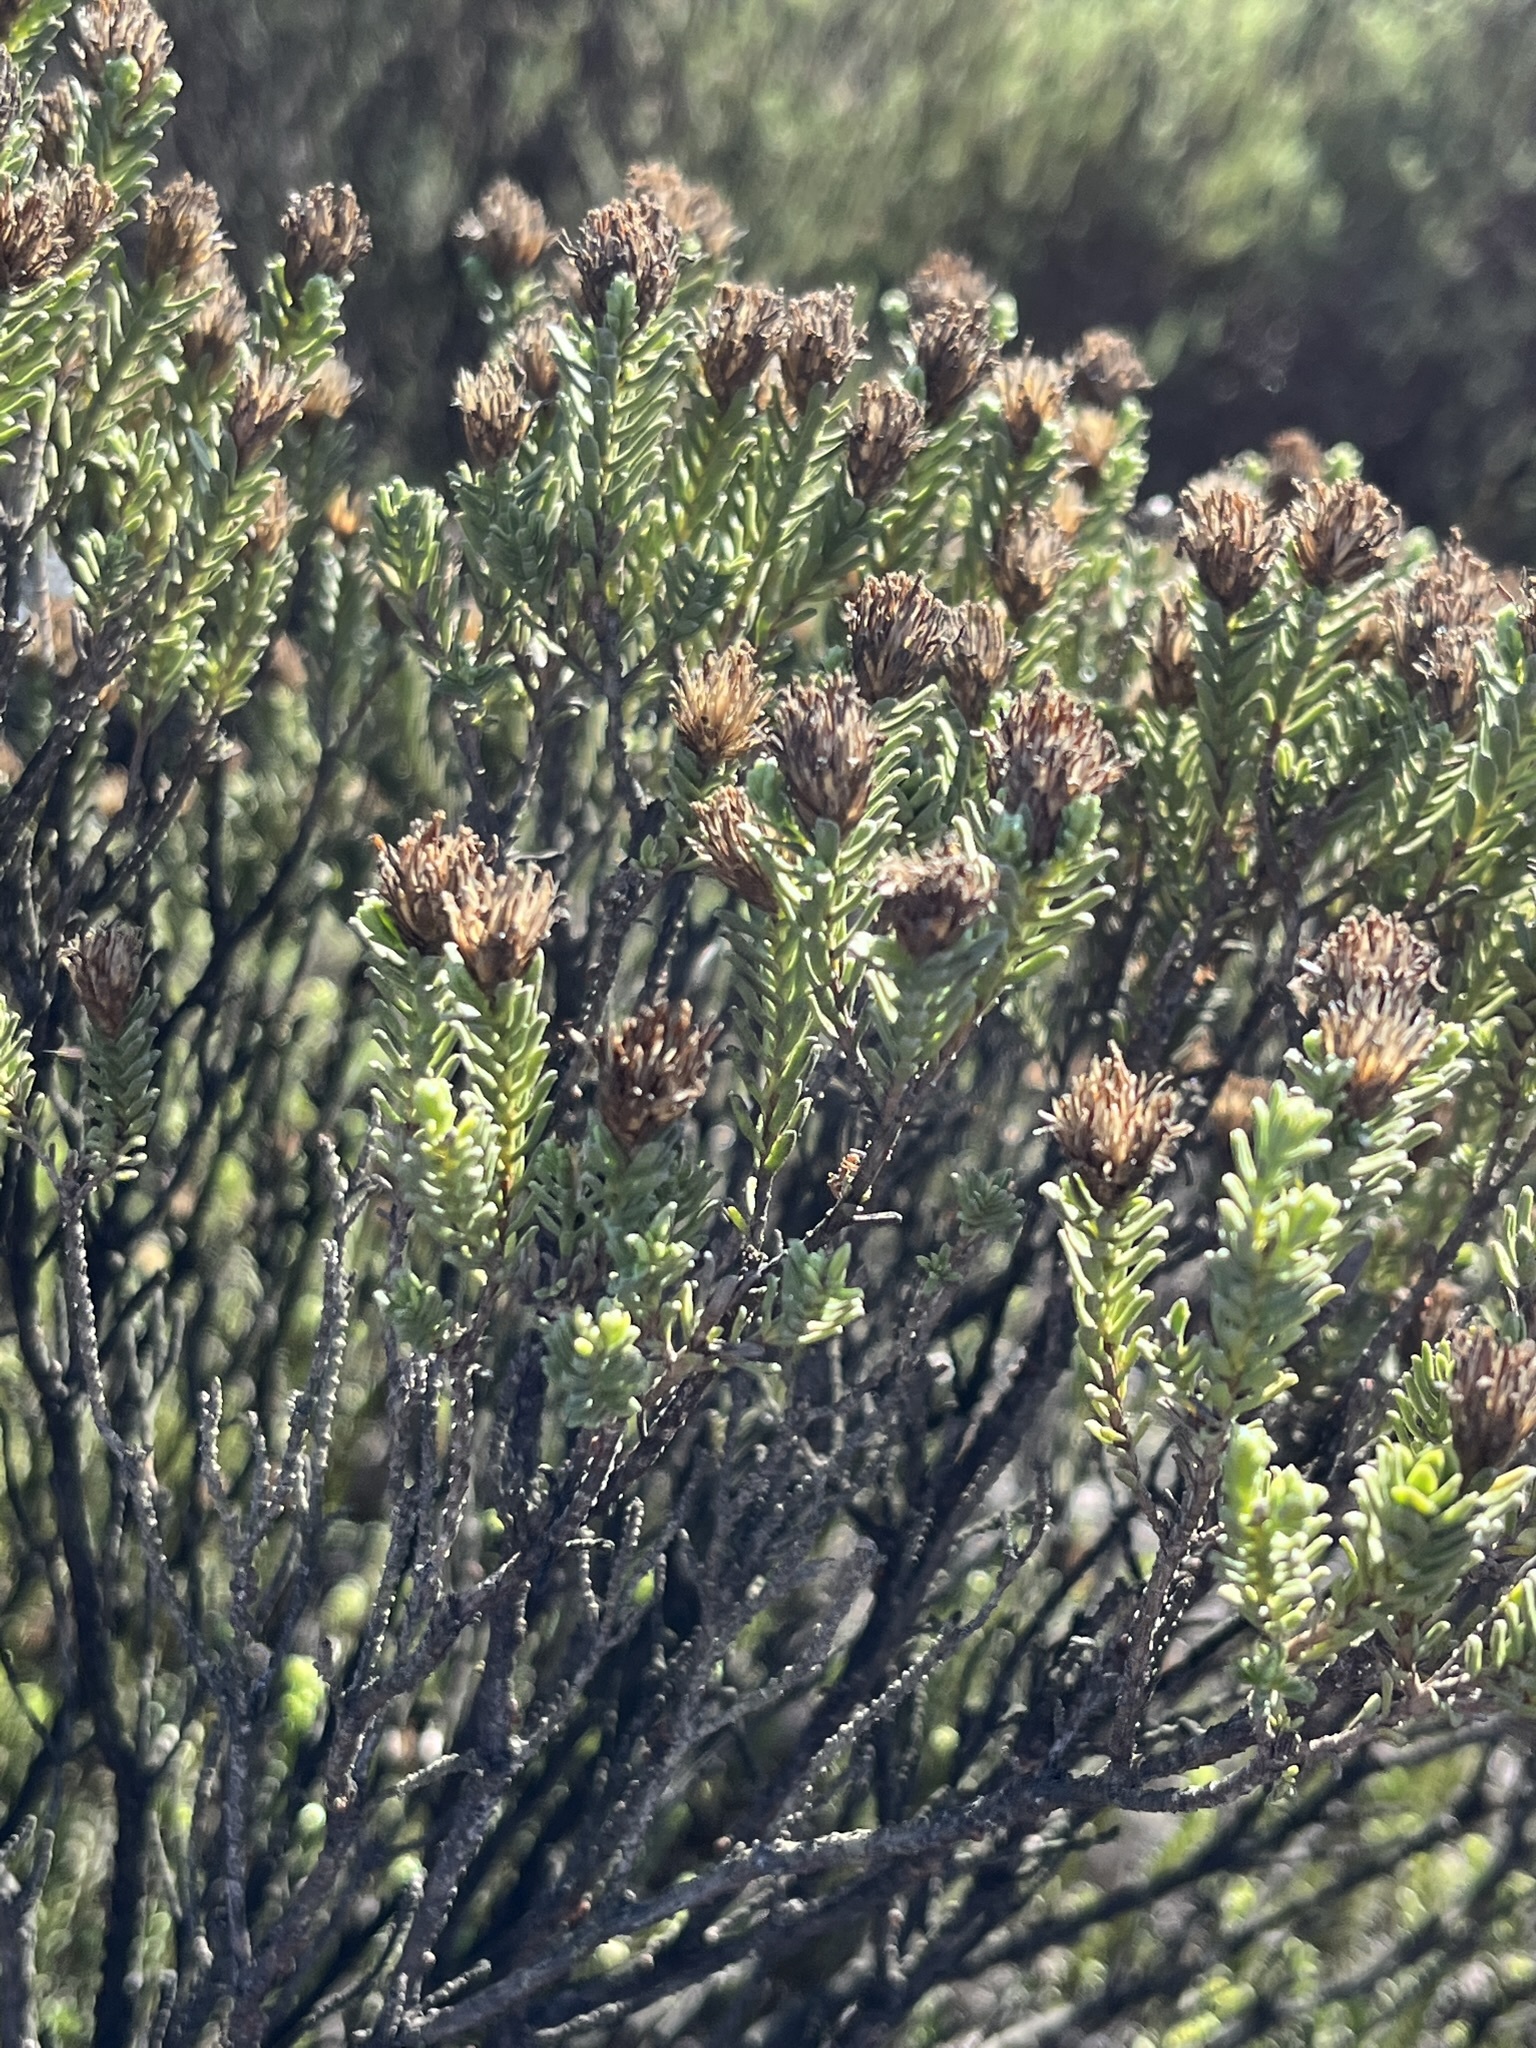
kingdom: Plantae
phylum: Tracheophyta
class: Magnoliopsida
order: Asterales
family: Asteraceae
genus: Oedera
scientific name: Oedera genistifolia
